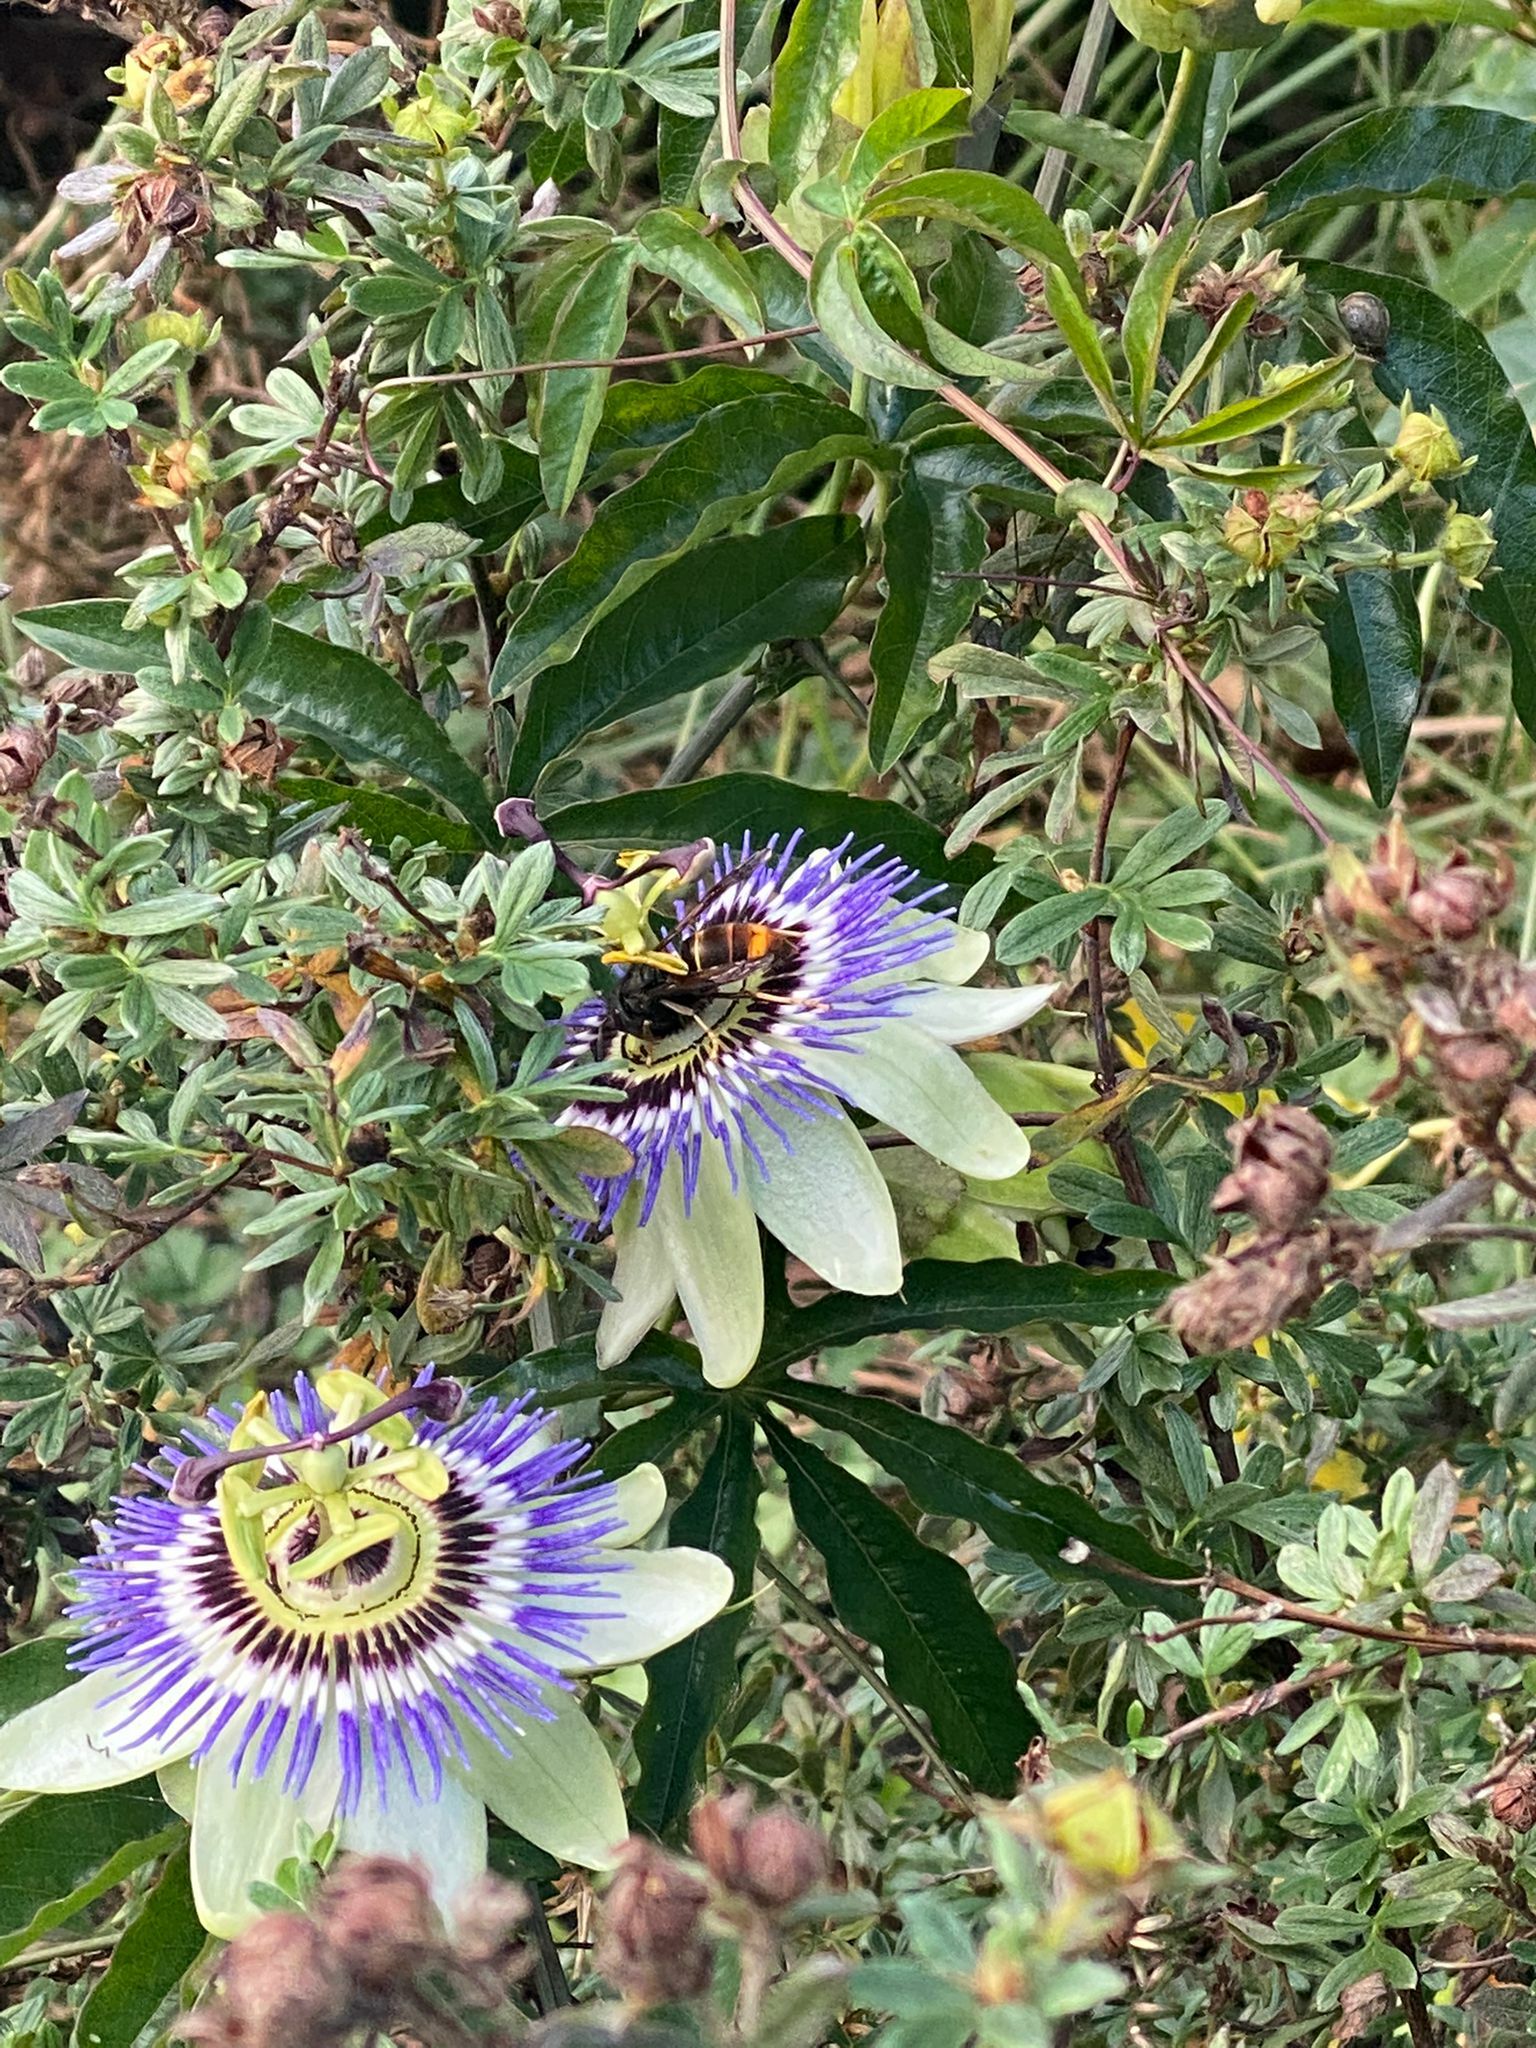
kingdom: Animalia
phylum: Arthropoda
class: Insecta
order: Hymenoptera
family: Vespidae
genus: Vespa
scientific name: Vespa velutina
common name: Asian hornet
